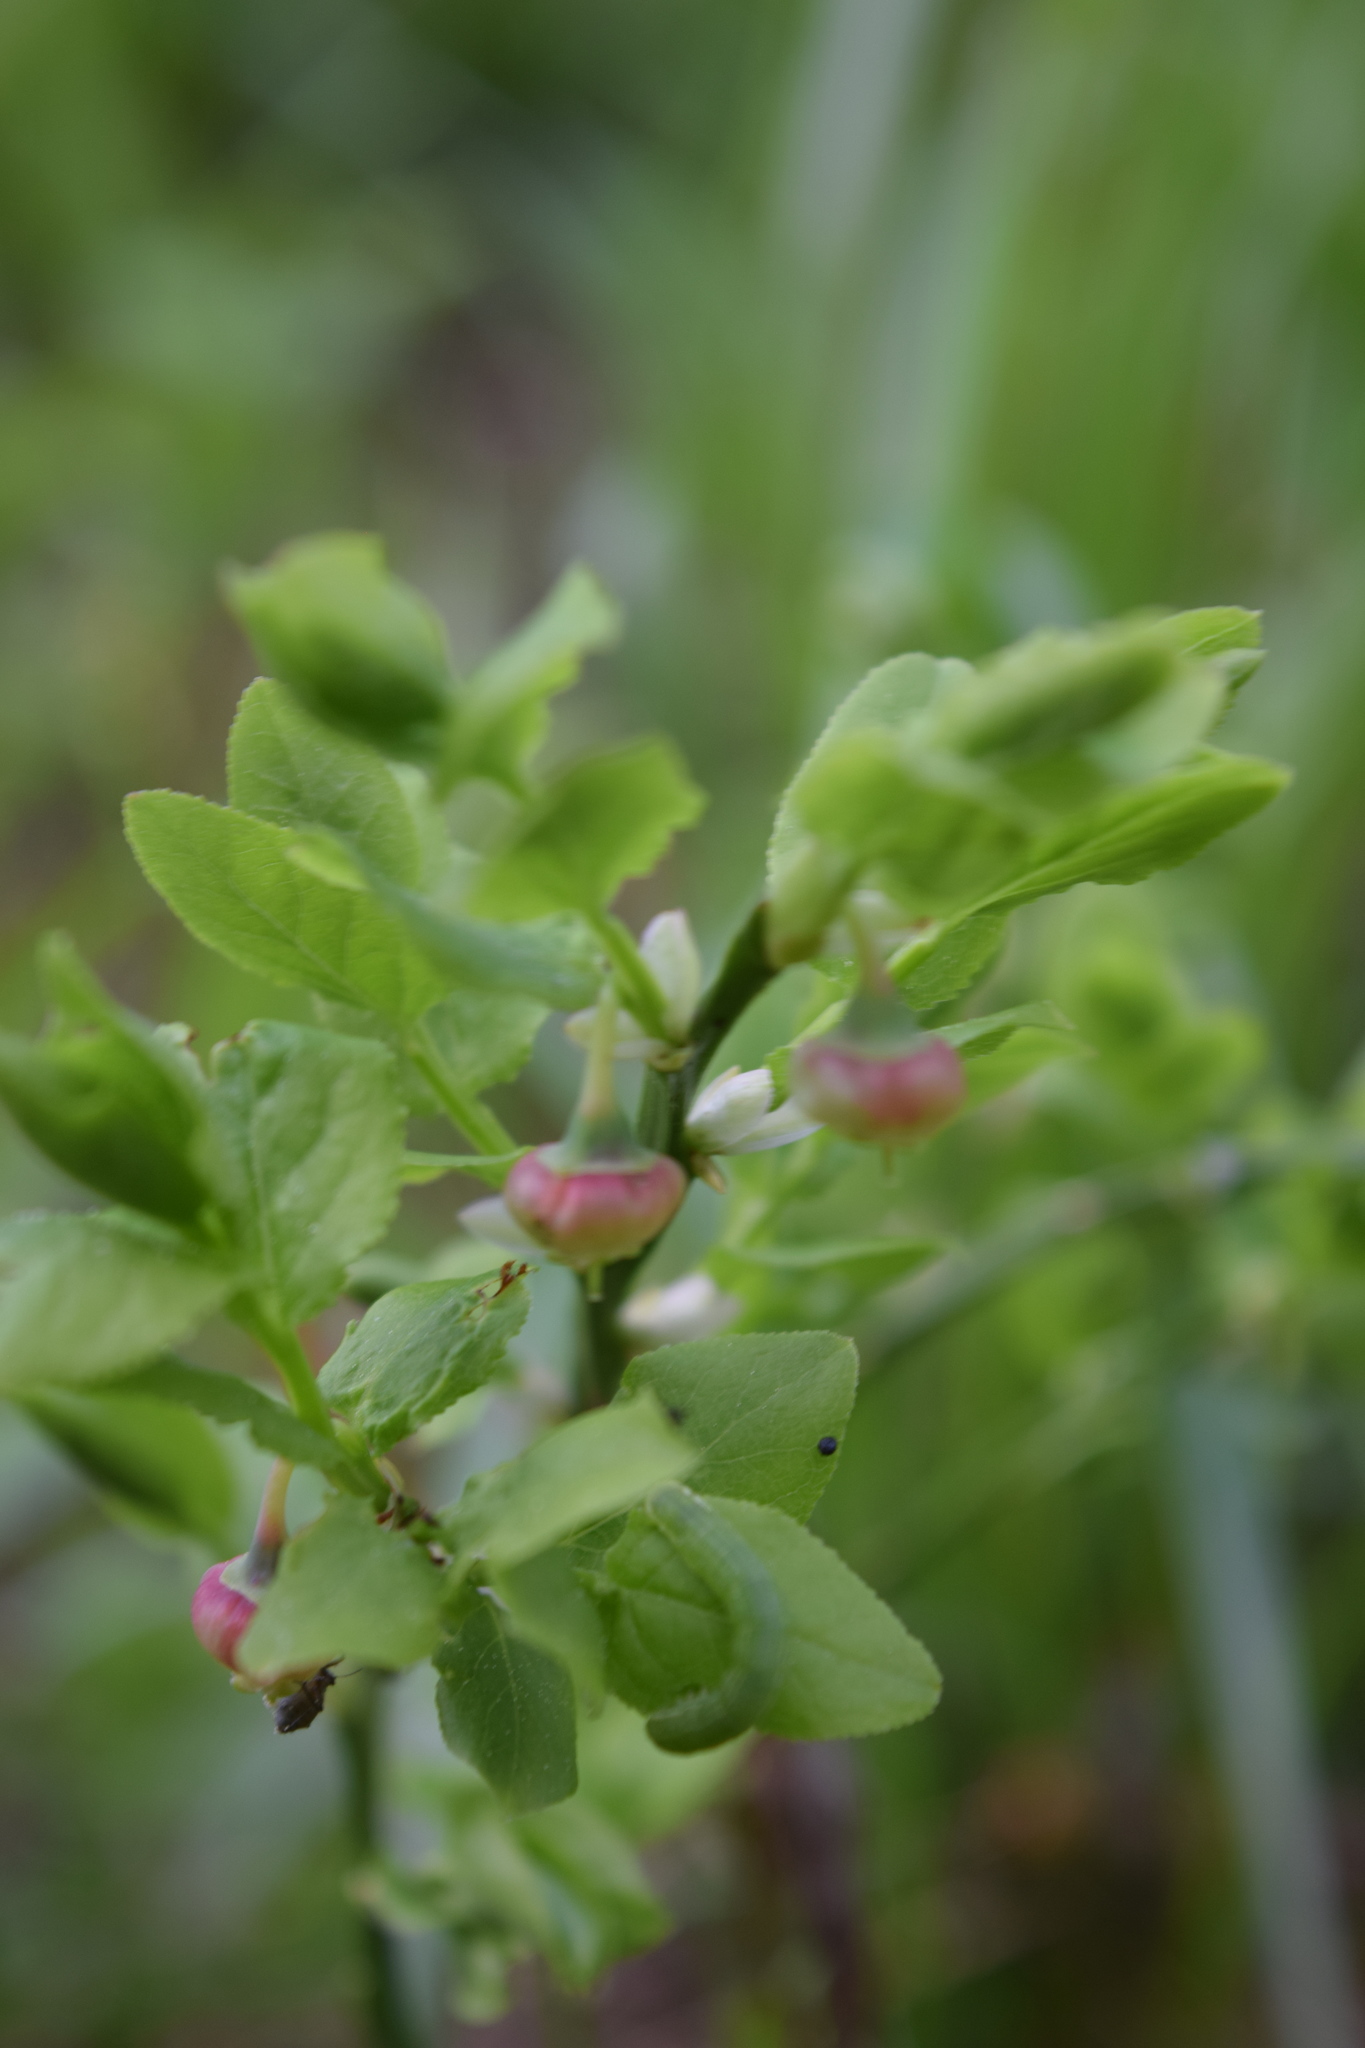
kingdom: Plantae
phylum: Tracheophyta
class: Magnoliopsida
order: Ericales
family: Ericaceae
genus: Vaccinium
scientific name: Vaccinium myrtillus
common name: Bilberry
